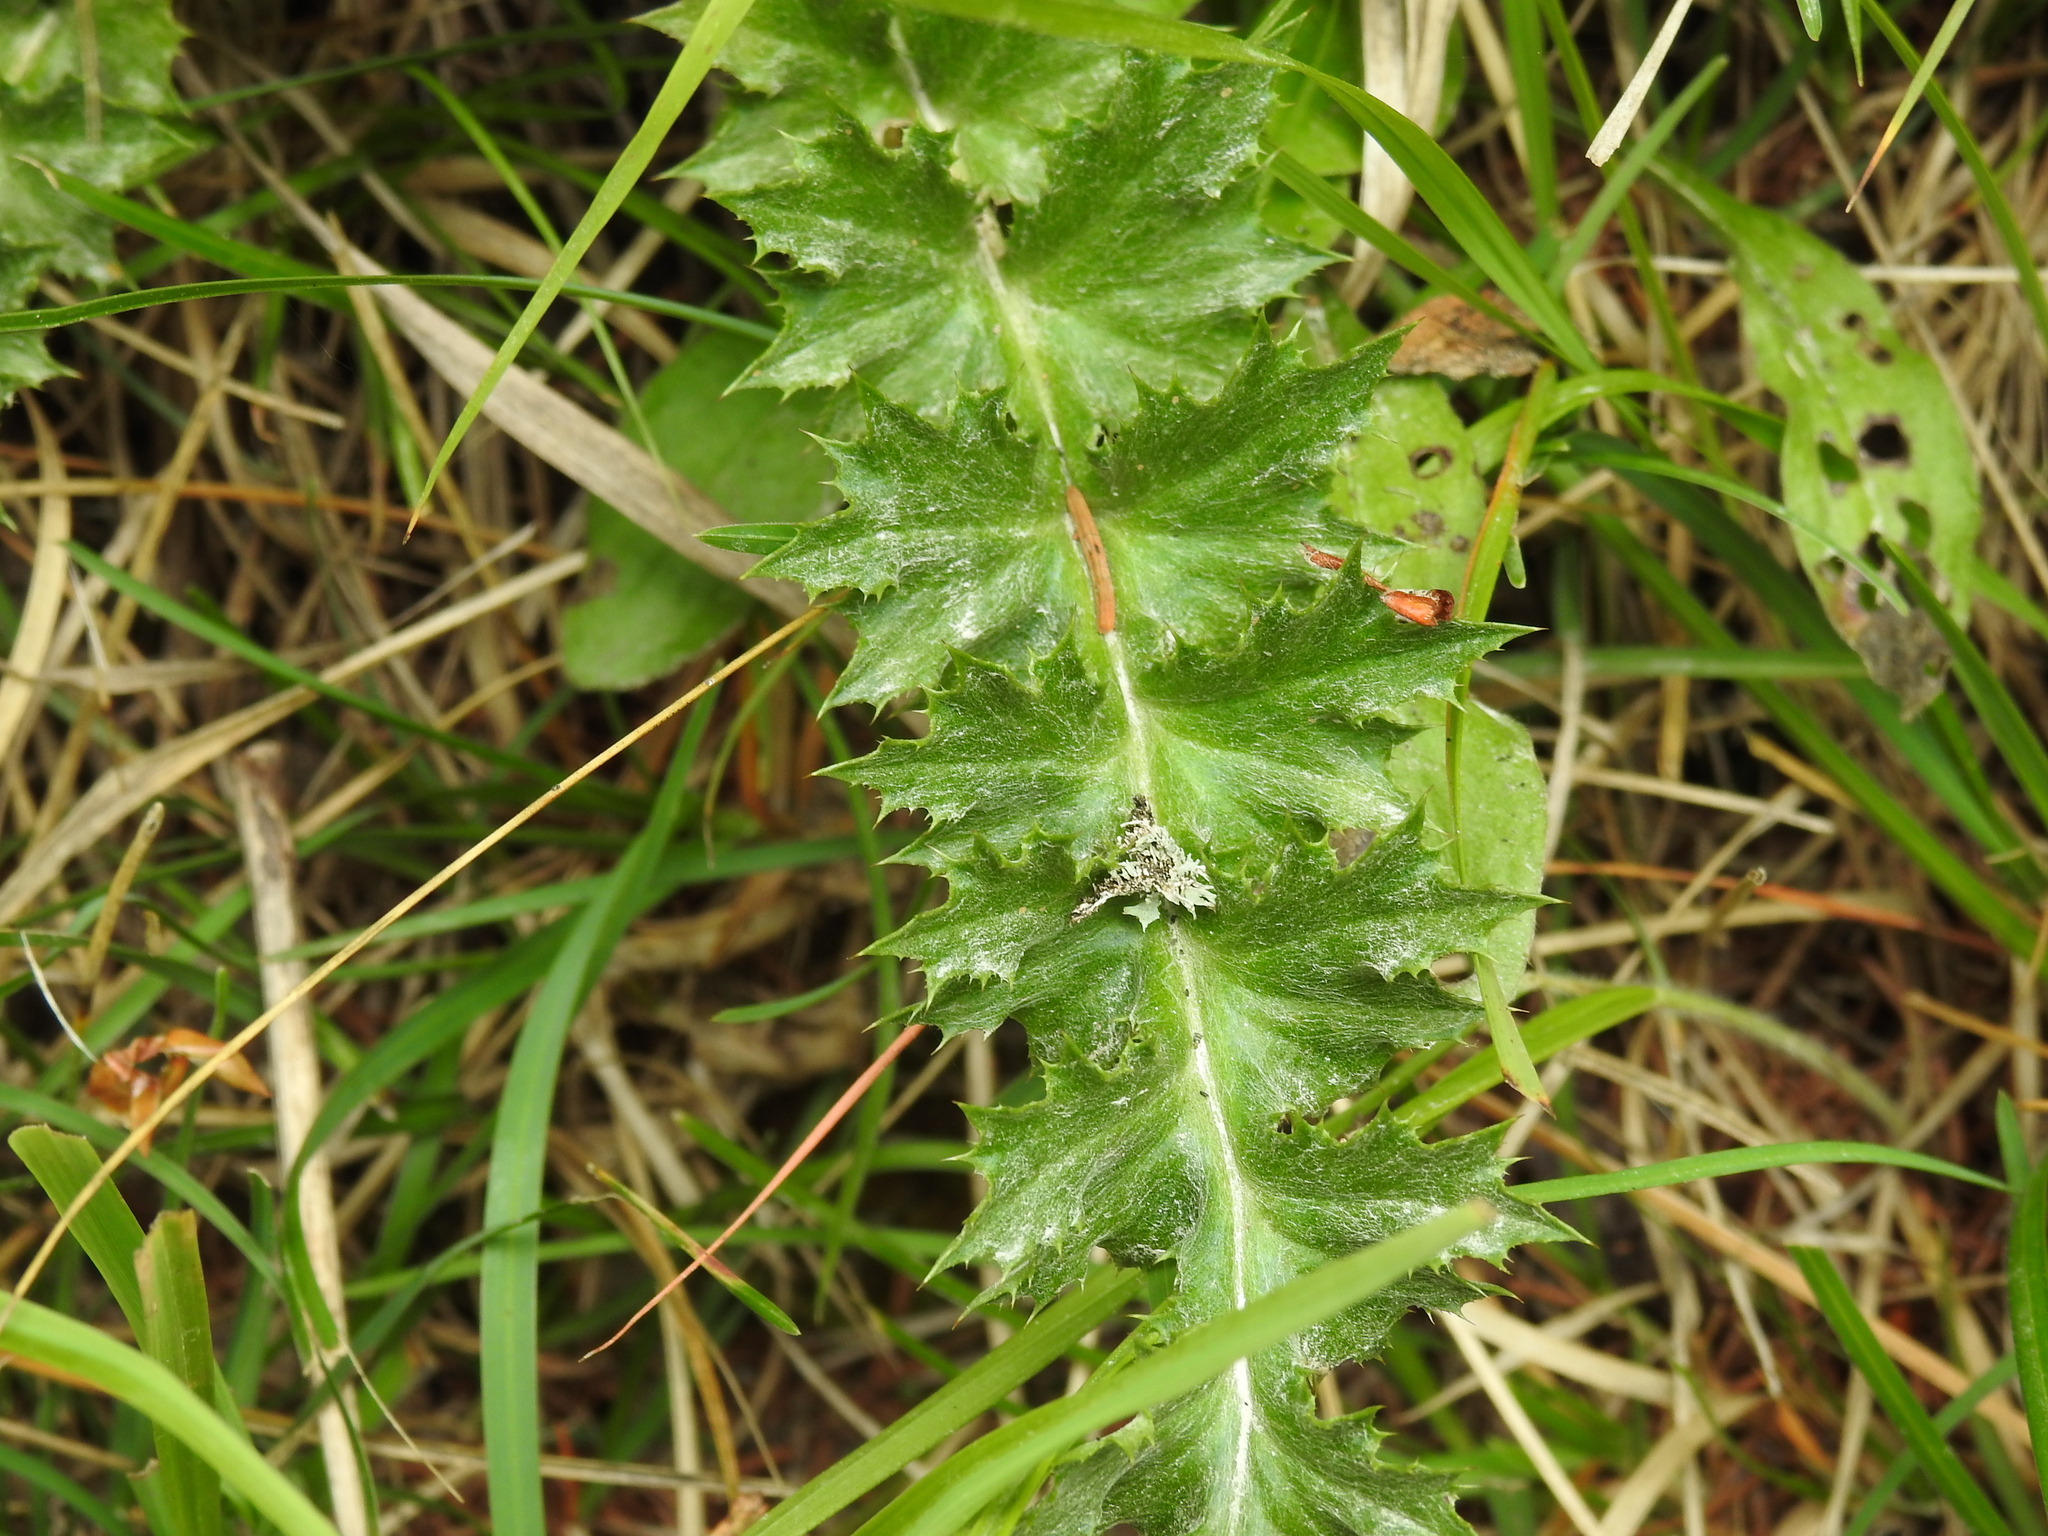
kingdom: Plantae
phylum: Tracheophyta
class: Magnoliopsida
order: Asterales
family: Asteraceae
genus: Carlina
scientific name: Carlina acaulis
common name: Stemless carline thistle
